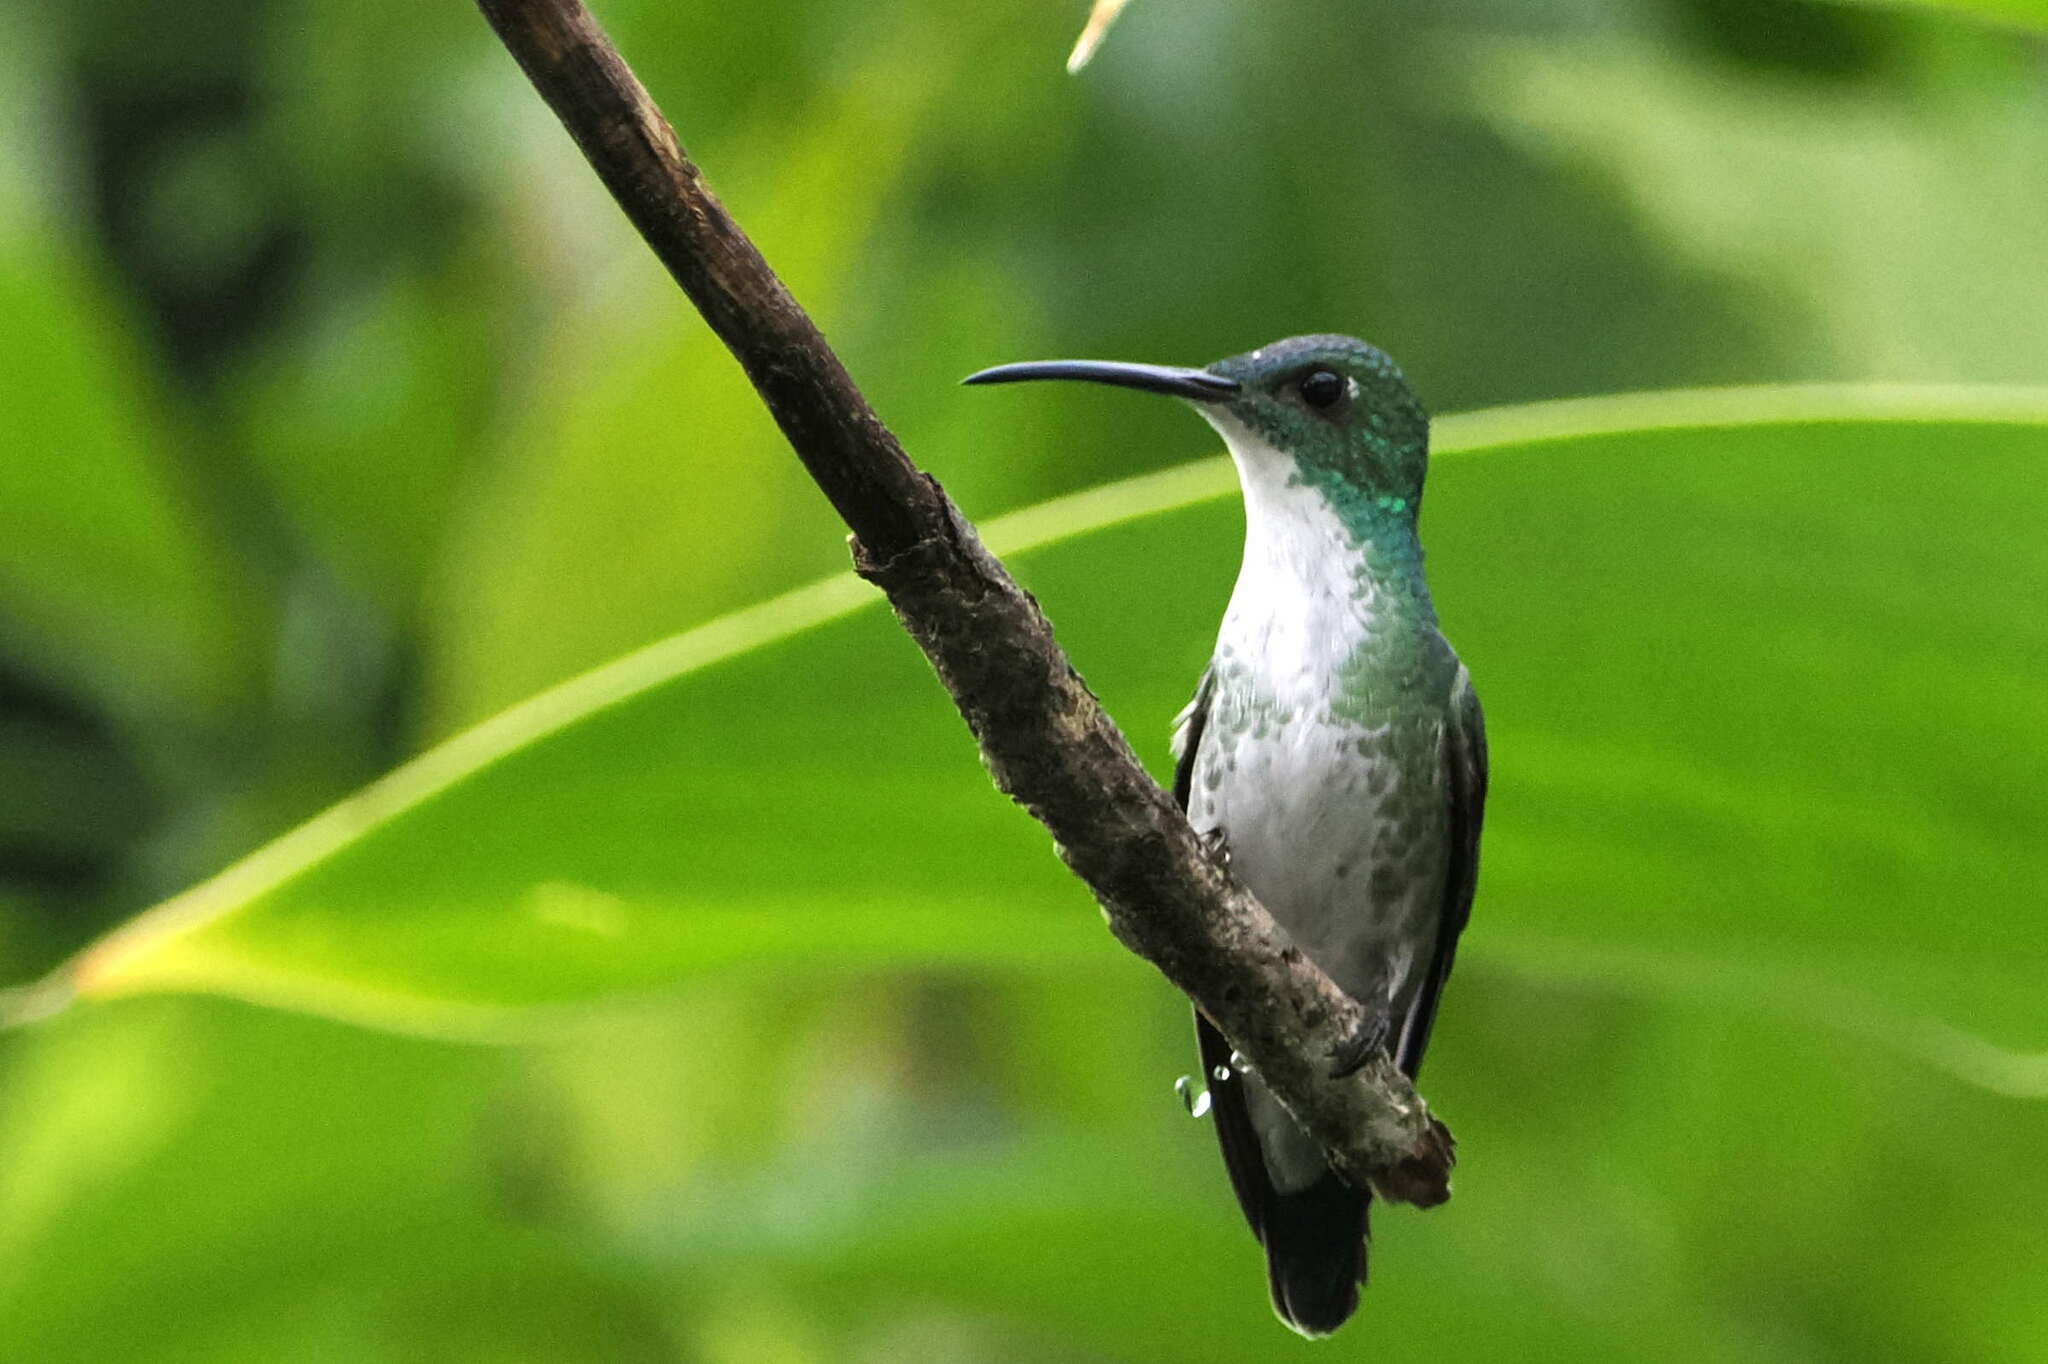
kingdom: Animalia
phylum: Chordata
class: Aves
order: Apodiformes
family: Trochilidae
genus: Chrysuronia
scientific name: Chrysuronia brevirostris
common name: White-chested emerald
